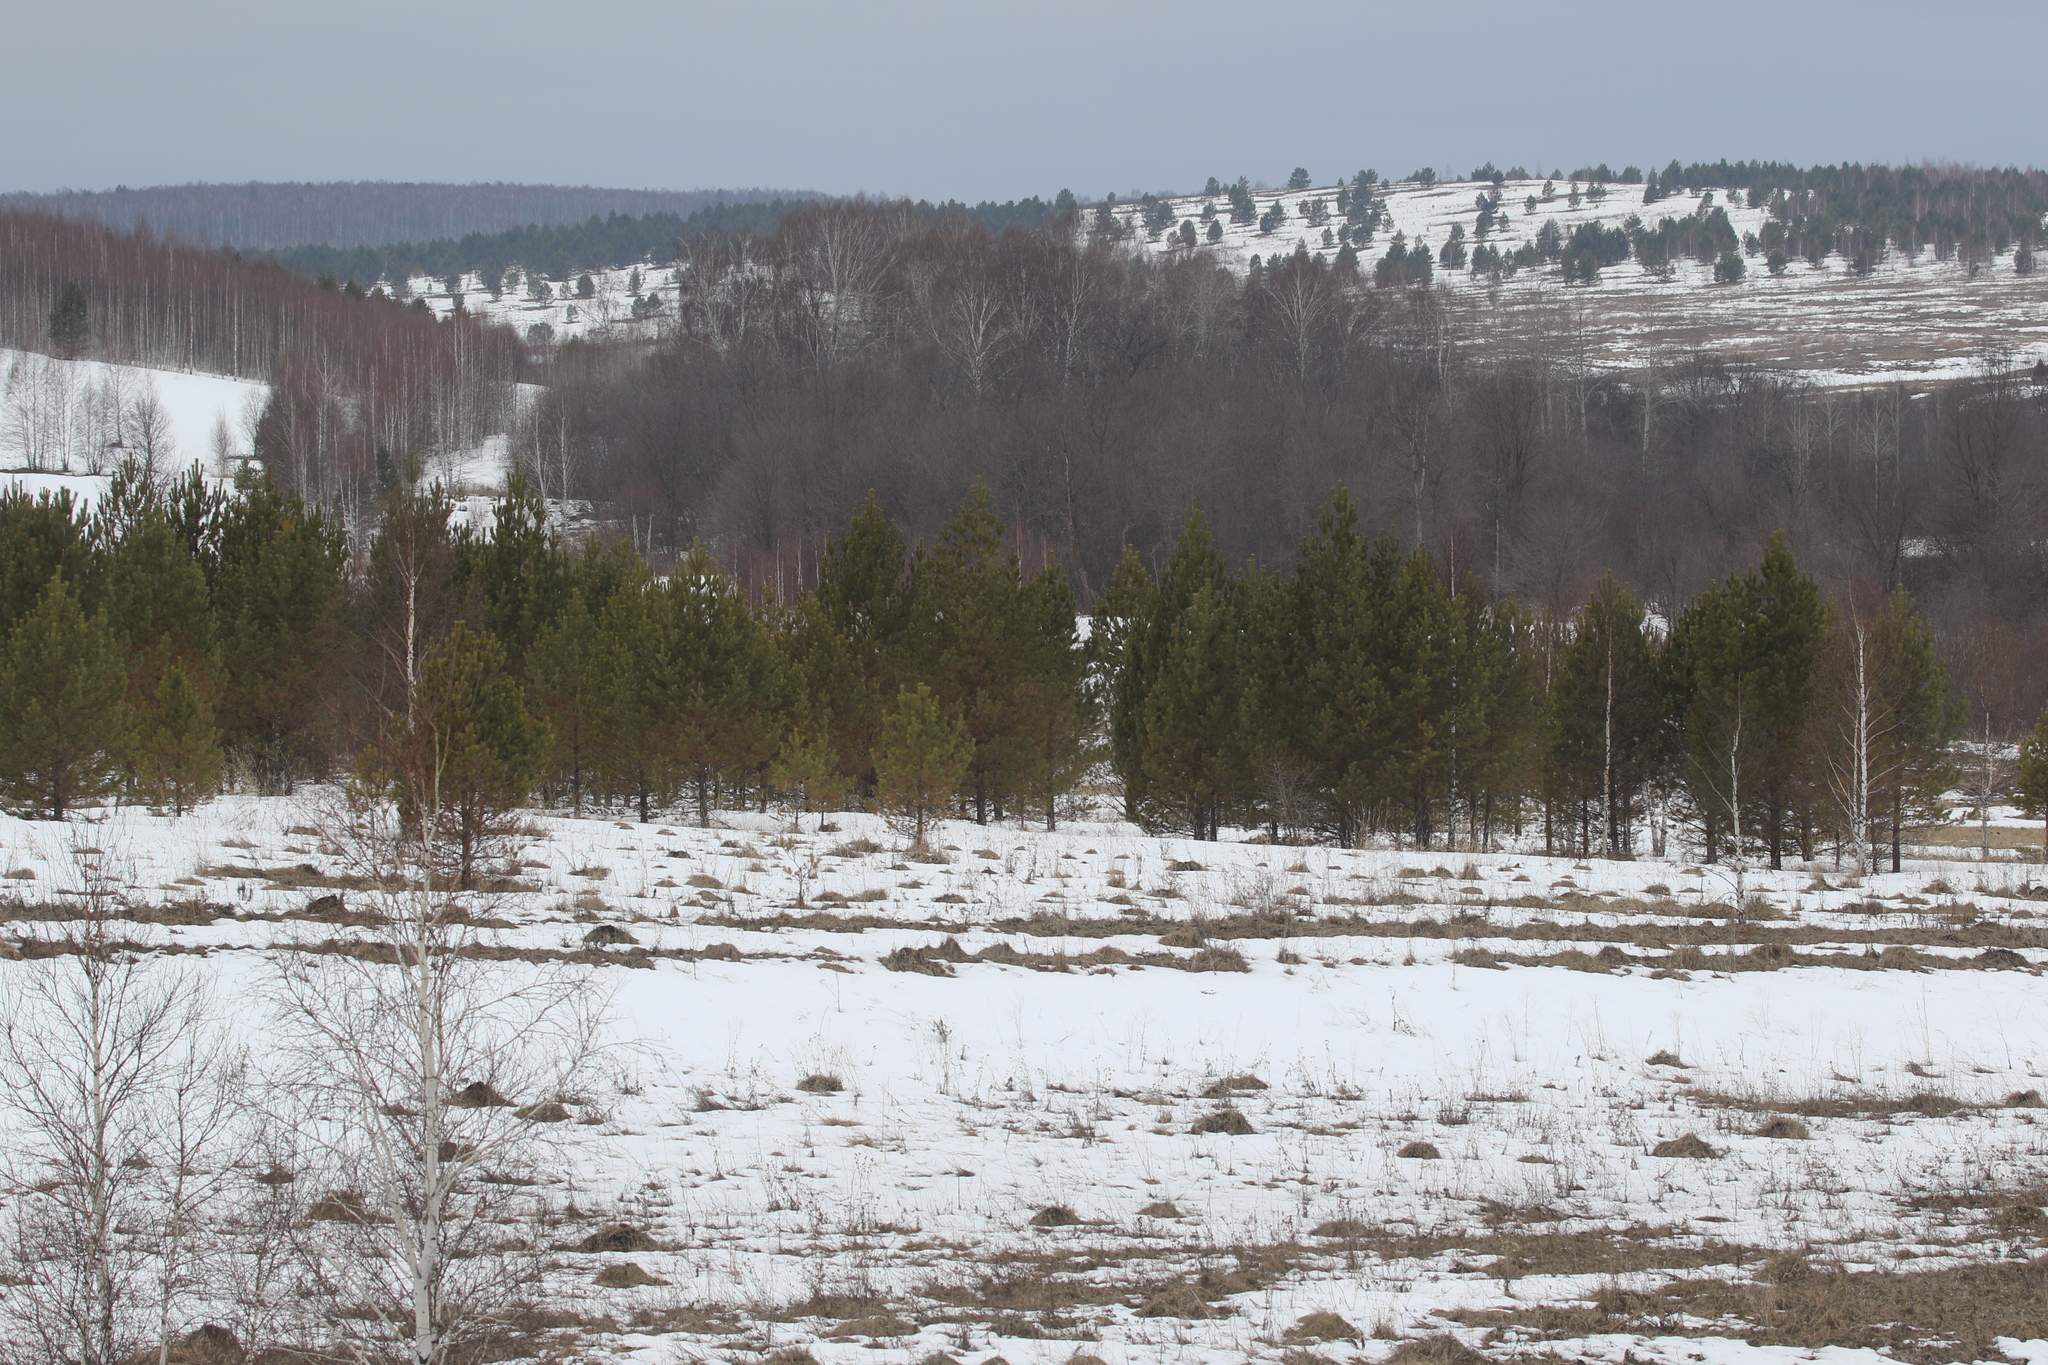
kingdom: Plantae
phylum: Tracheophyta
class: Pinopsida
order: Pinales
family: Pinaceae
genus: Pinus
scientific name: Pinus sylvestris
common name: Scots pine
